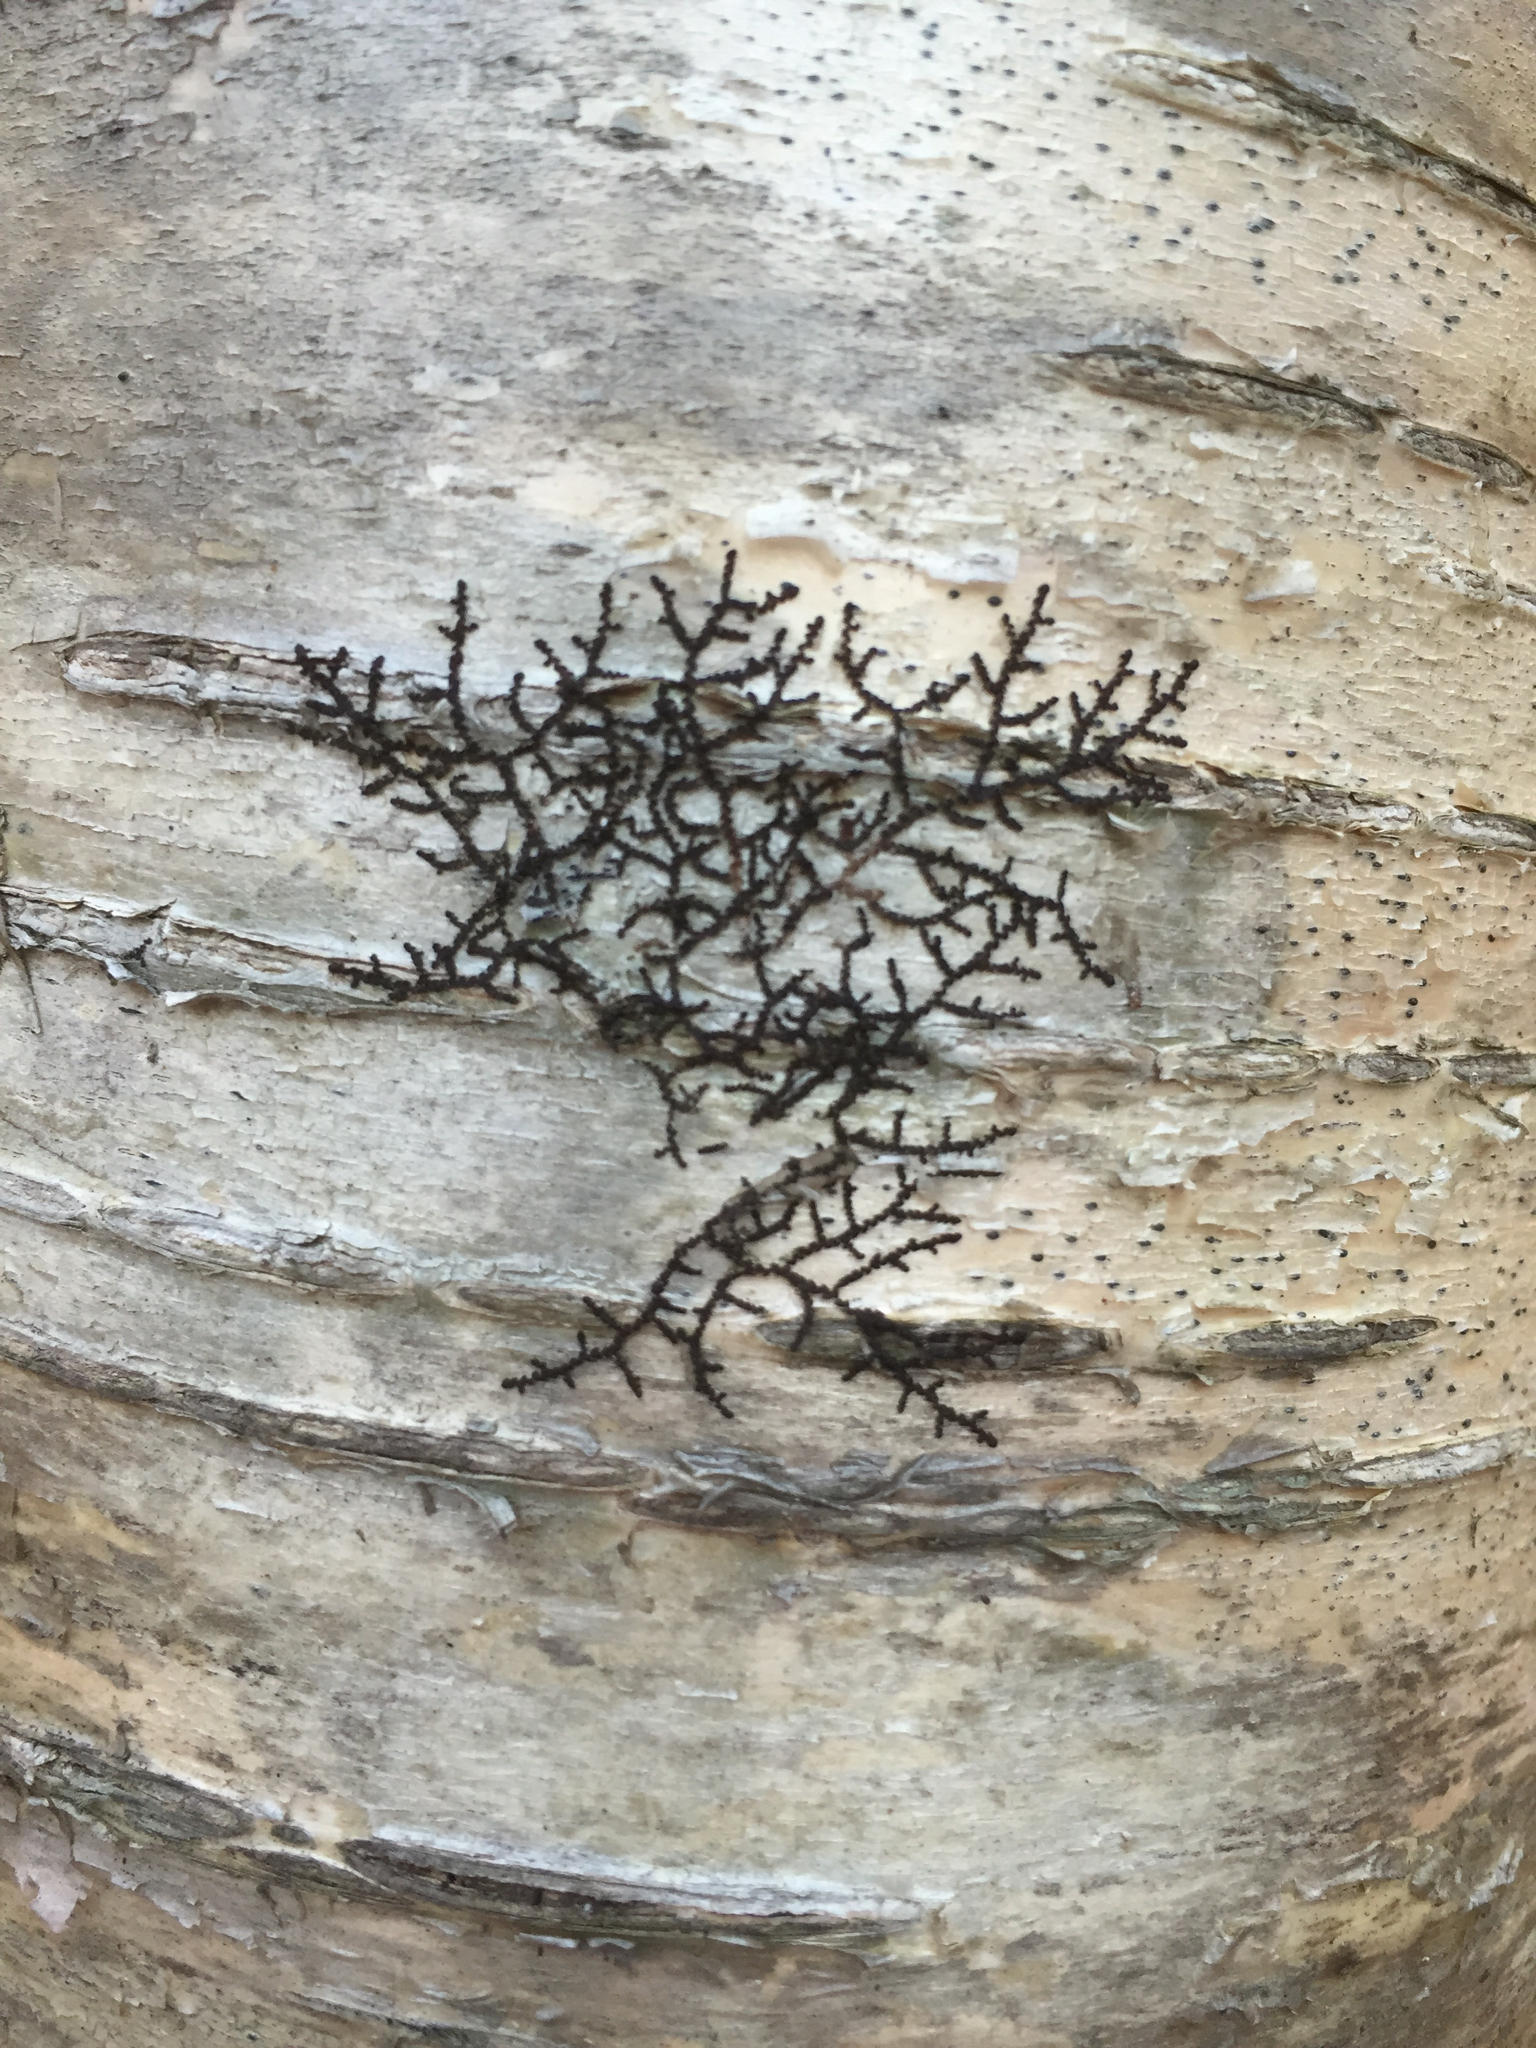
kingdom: Plantae
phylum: Marchantiophyta
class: Jungermanniopsida
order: Porellales
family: Frullaniaceae
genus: Frullania
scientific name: Frullania
